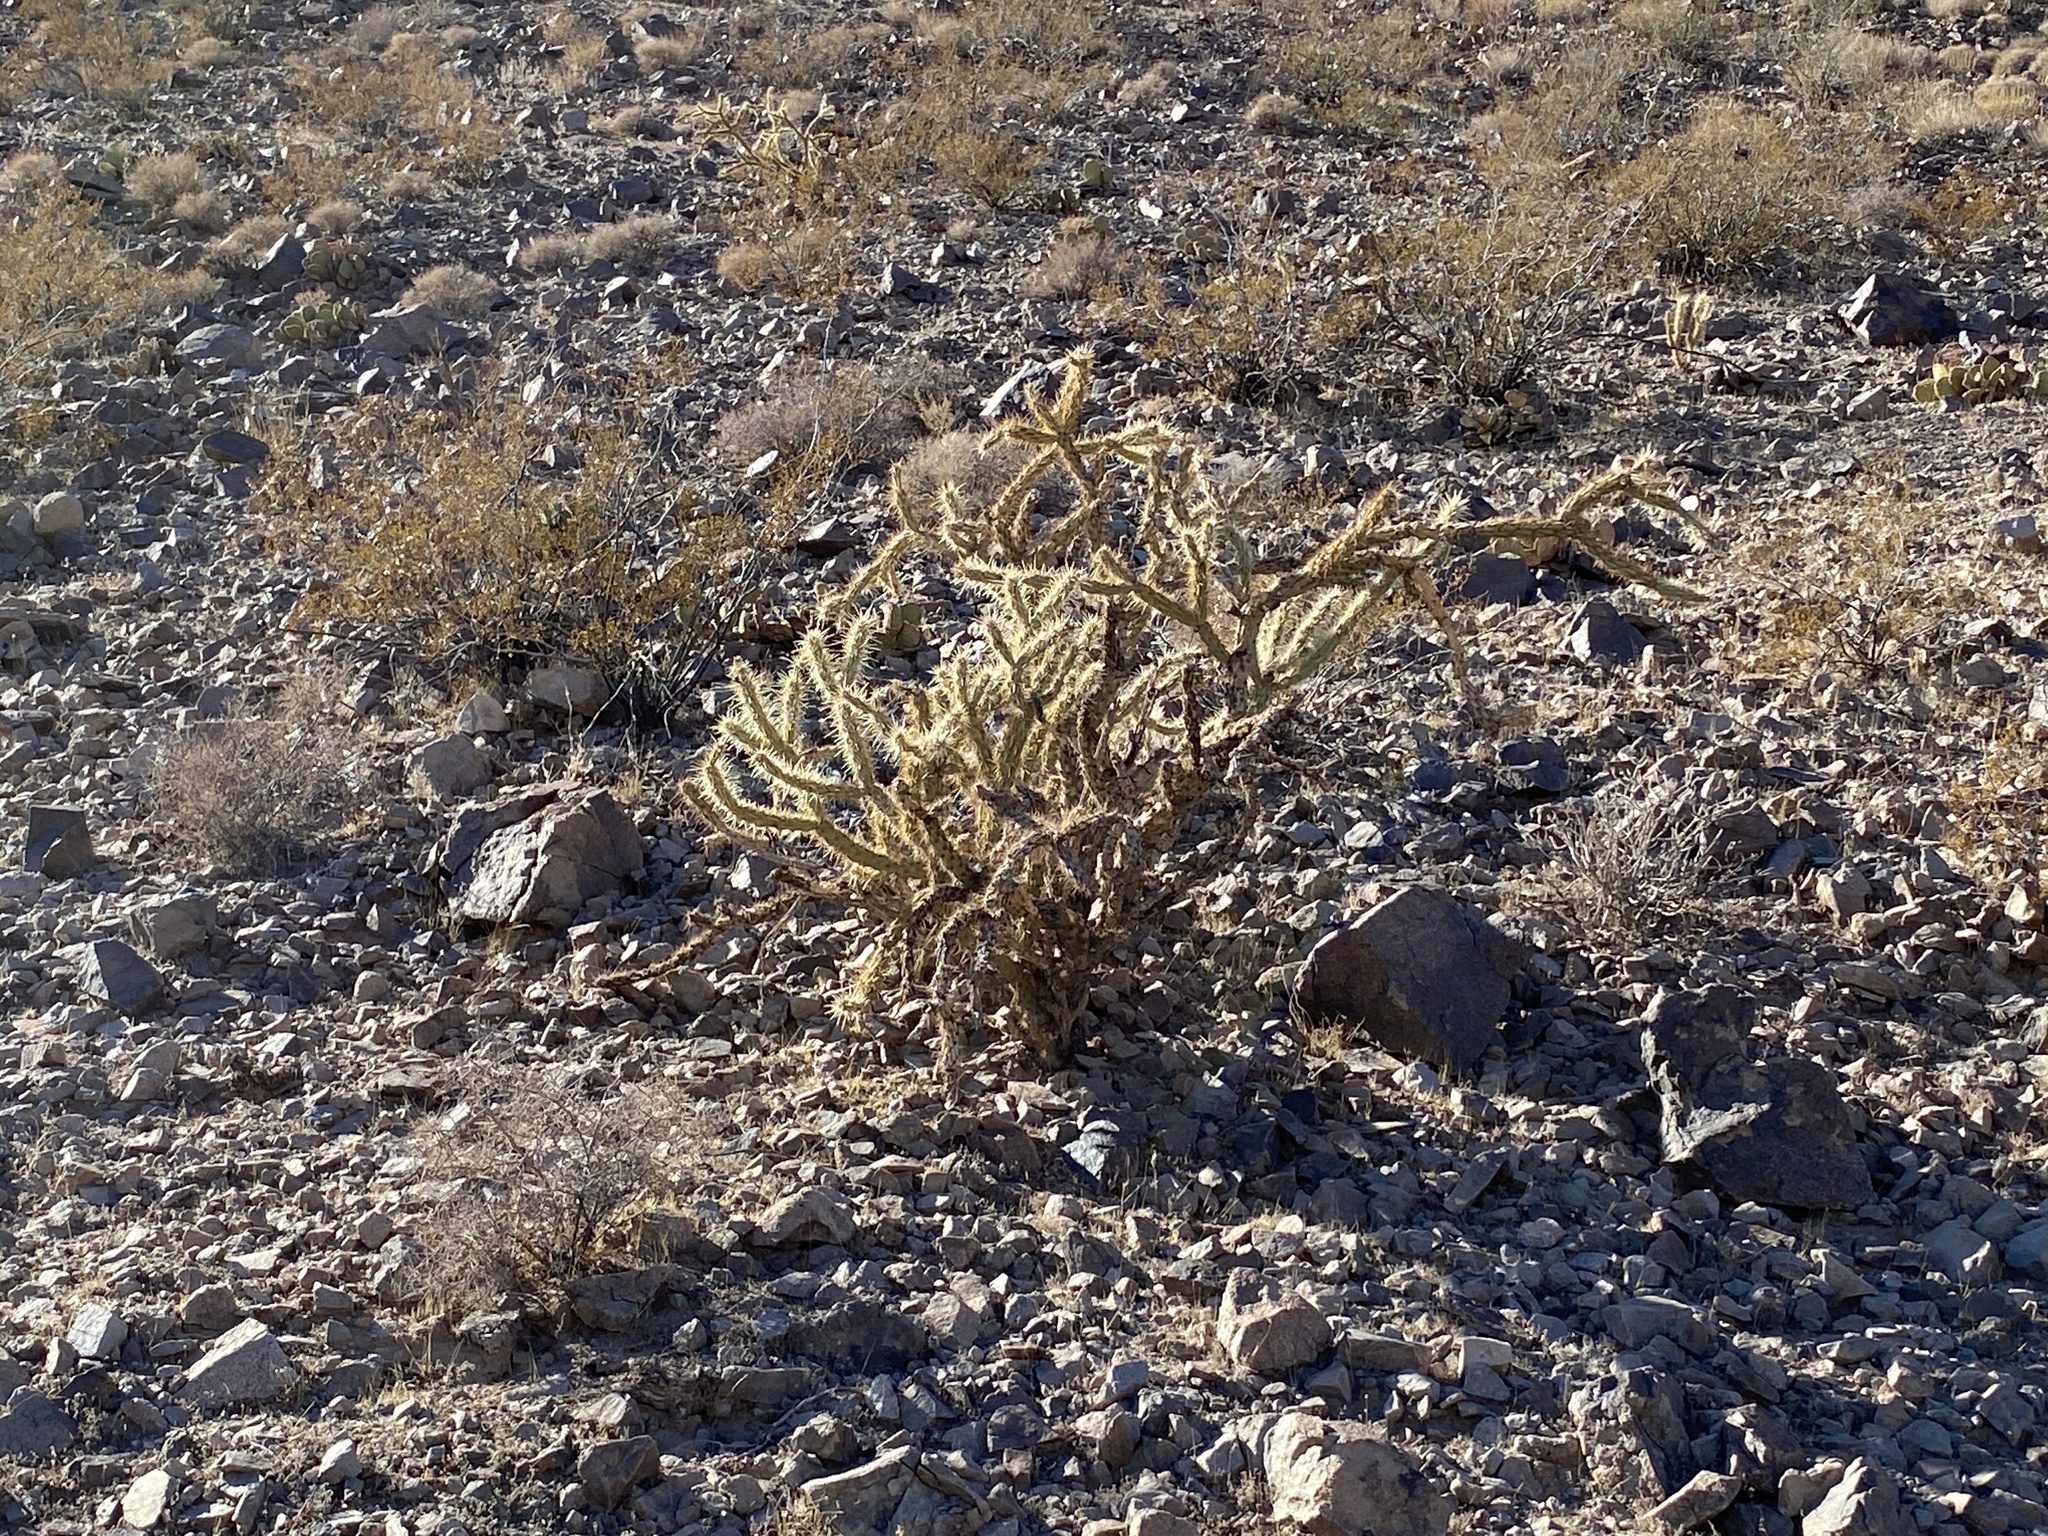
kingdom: Plantae
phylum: Tracheophyta
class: Magnoliopsida
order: Caryophyllales
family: Cactaceae
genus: Cylindropuntia
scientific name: Cylindropuntia acanthocarpa
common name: Buckhorn cholla
